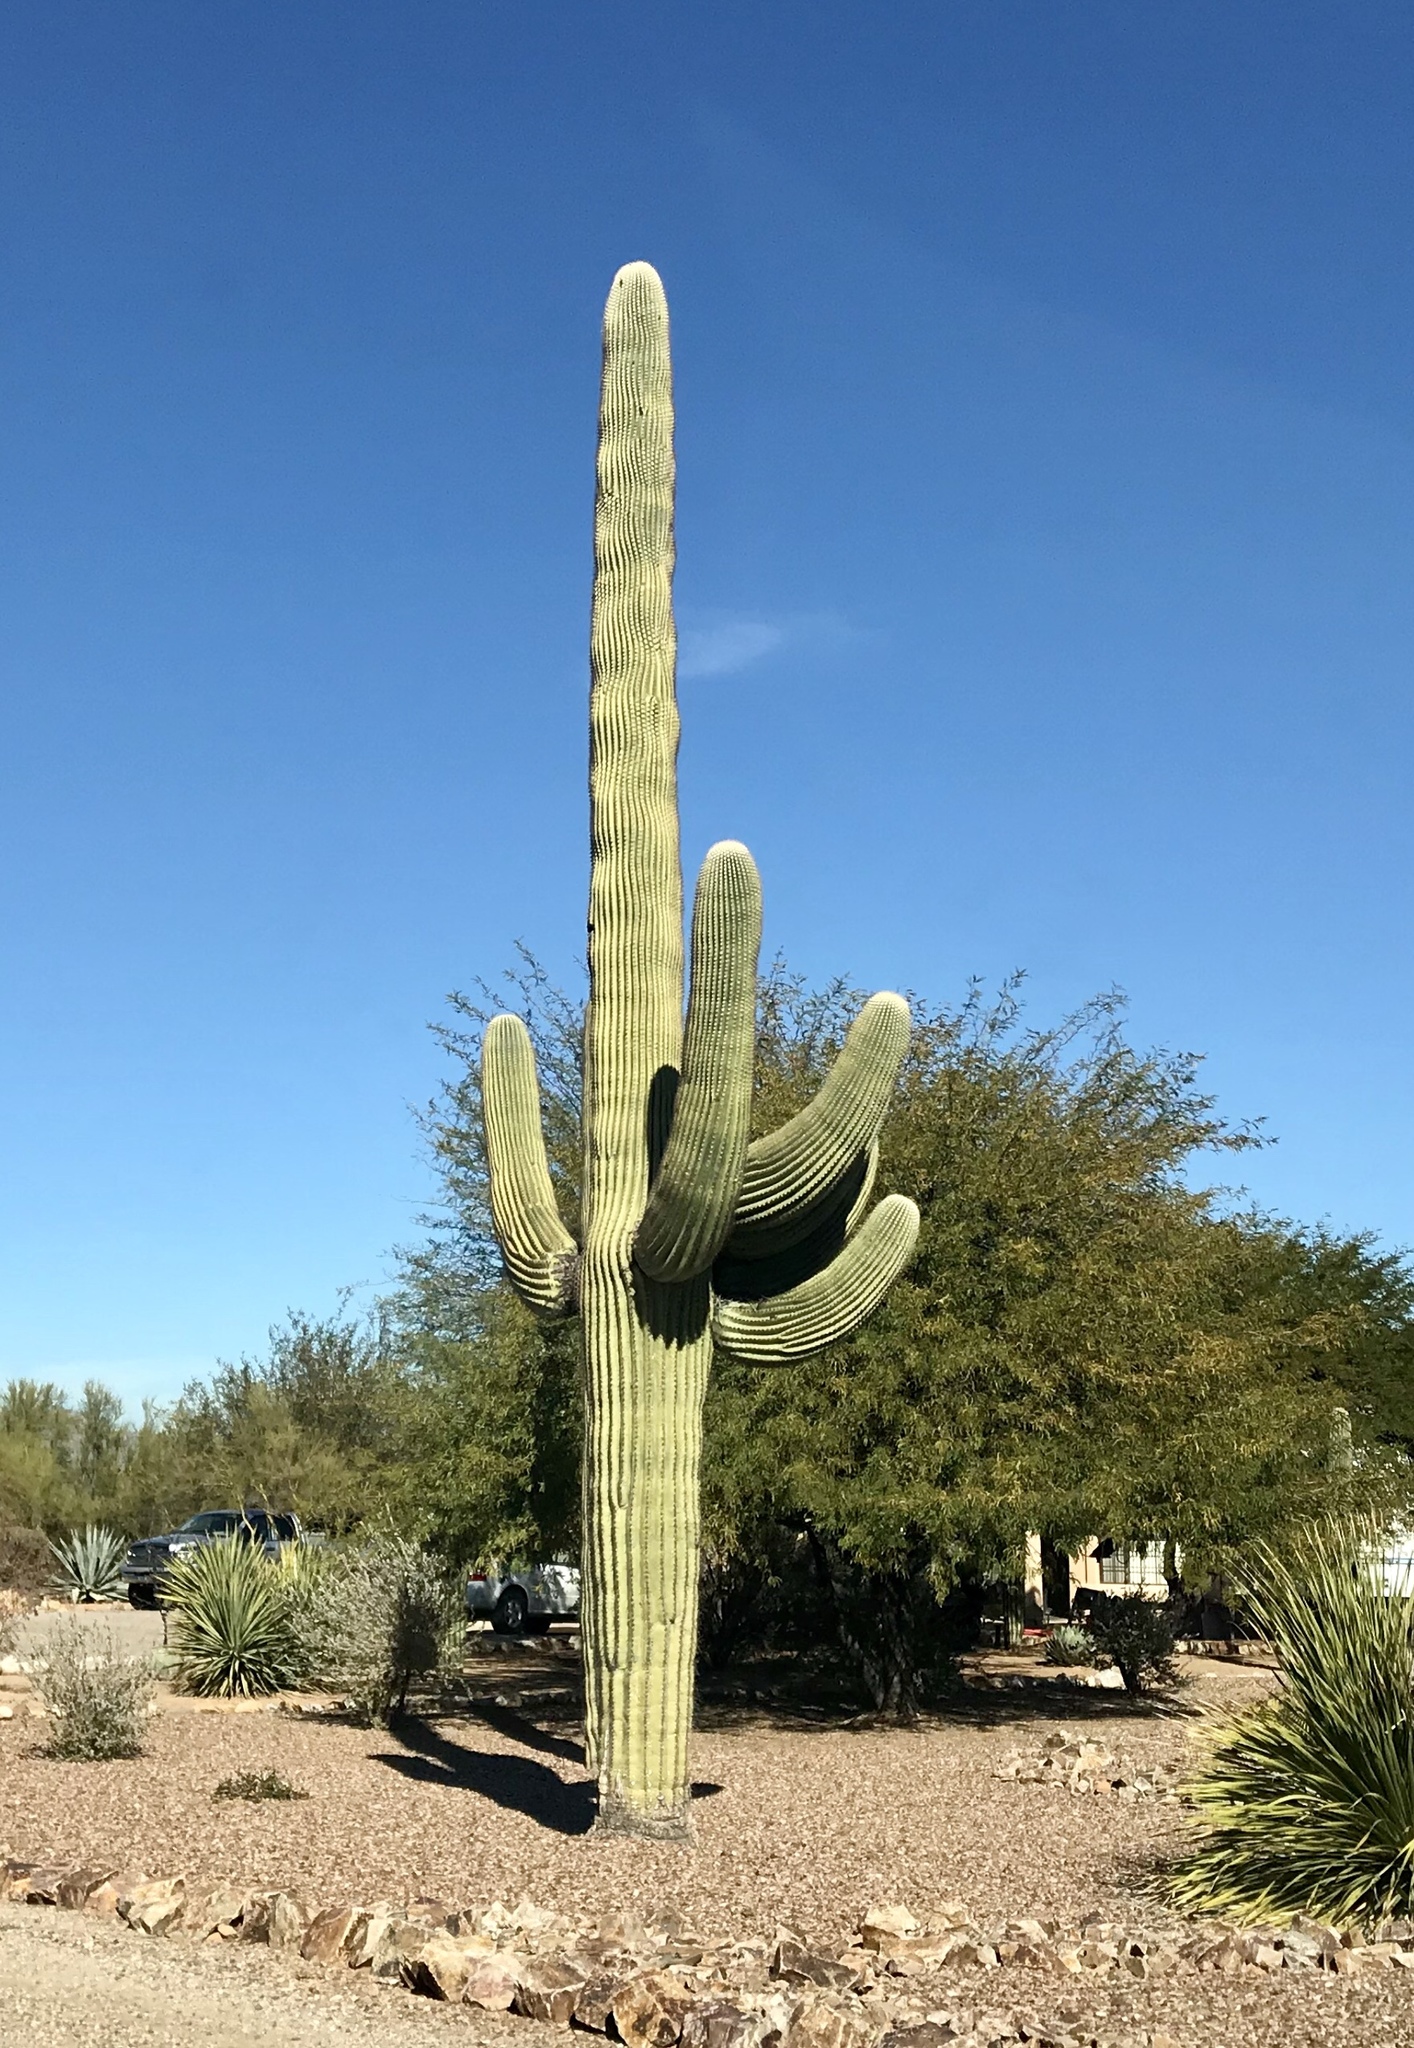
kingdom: Plantae
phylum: Tracheophyta
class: Magnoliopsida
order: Caryophyllales
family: Cactaceae
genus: Carnegiea
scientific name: Carnegiea gigantea
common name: Saguaro
